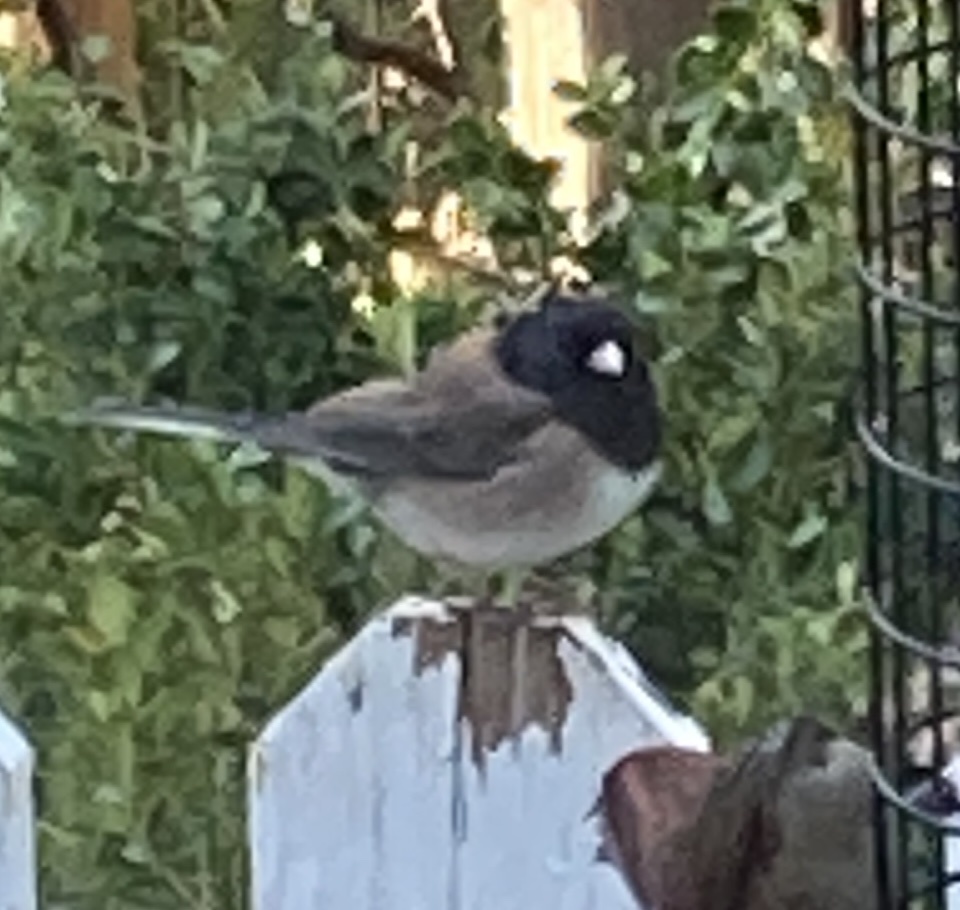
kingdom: Animalia
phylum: Chordata
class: Aves
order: Passeriformes
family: Passerellidae
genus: Junco
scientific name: Junco hyemalis
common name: Dark-eyed junco
